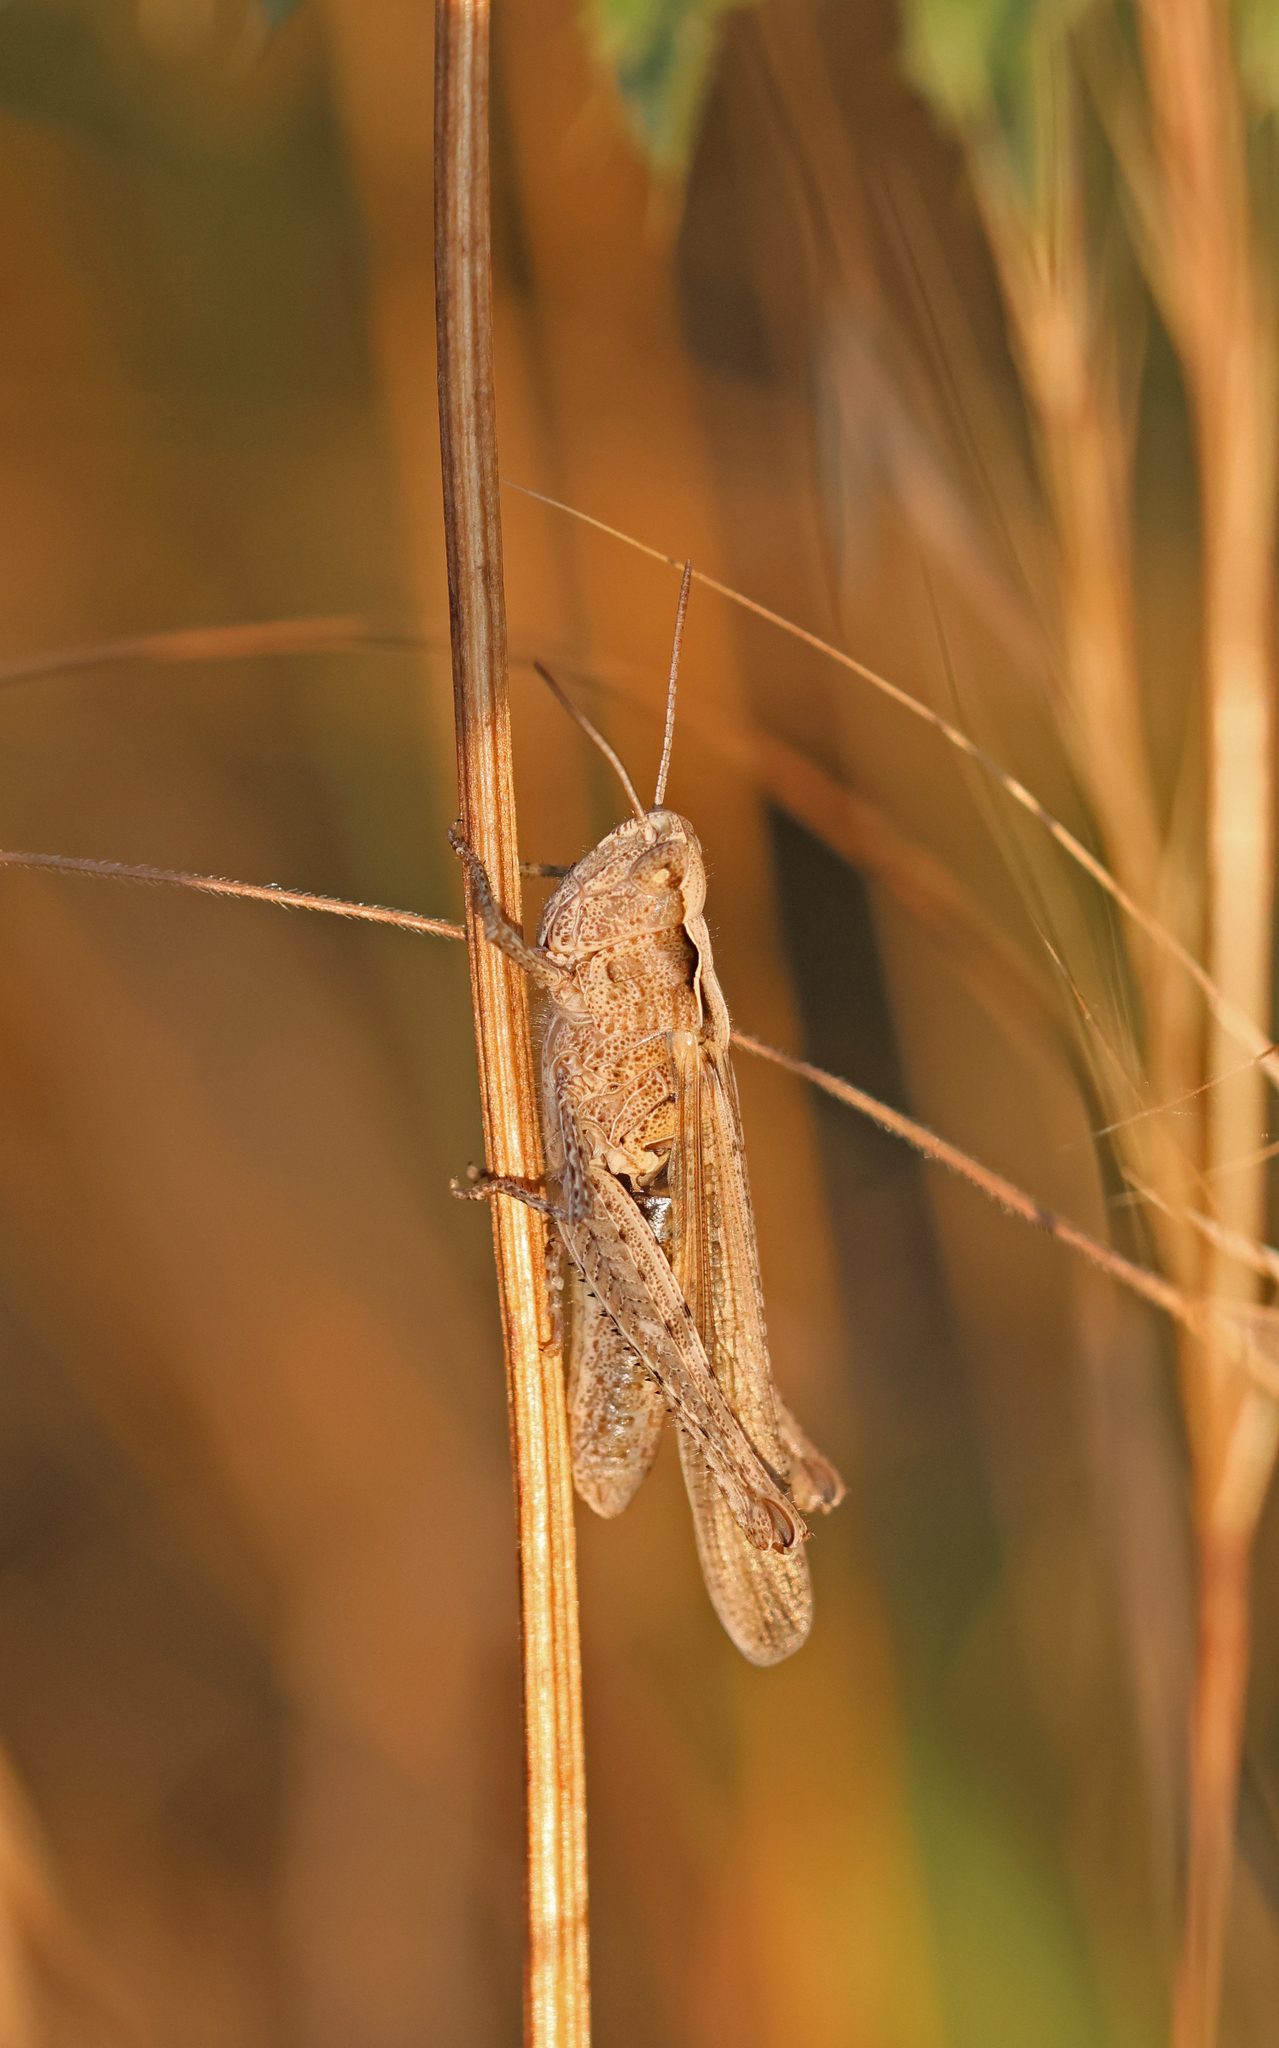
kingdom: Animalia
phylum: Arthropoda
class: Insecta
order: Orthoptera
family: Acrididae
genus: Chorthippus
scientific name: Chorthippus brunneus
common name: Field grasshopper
